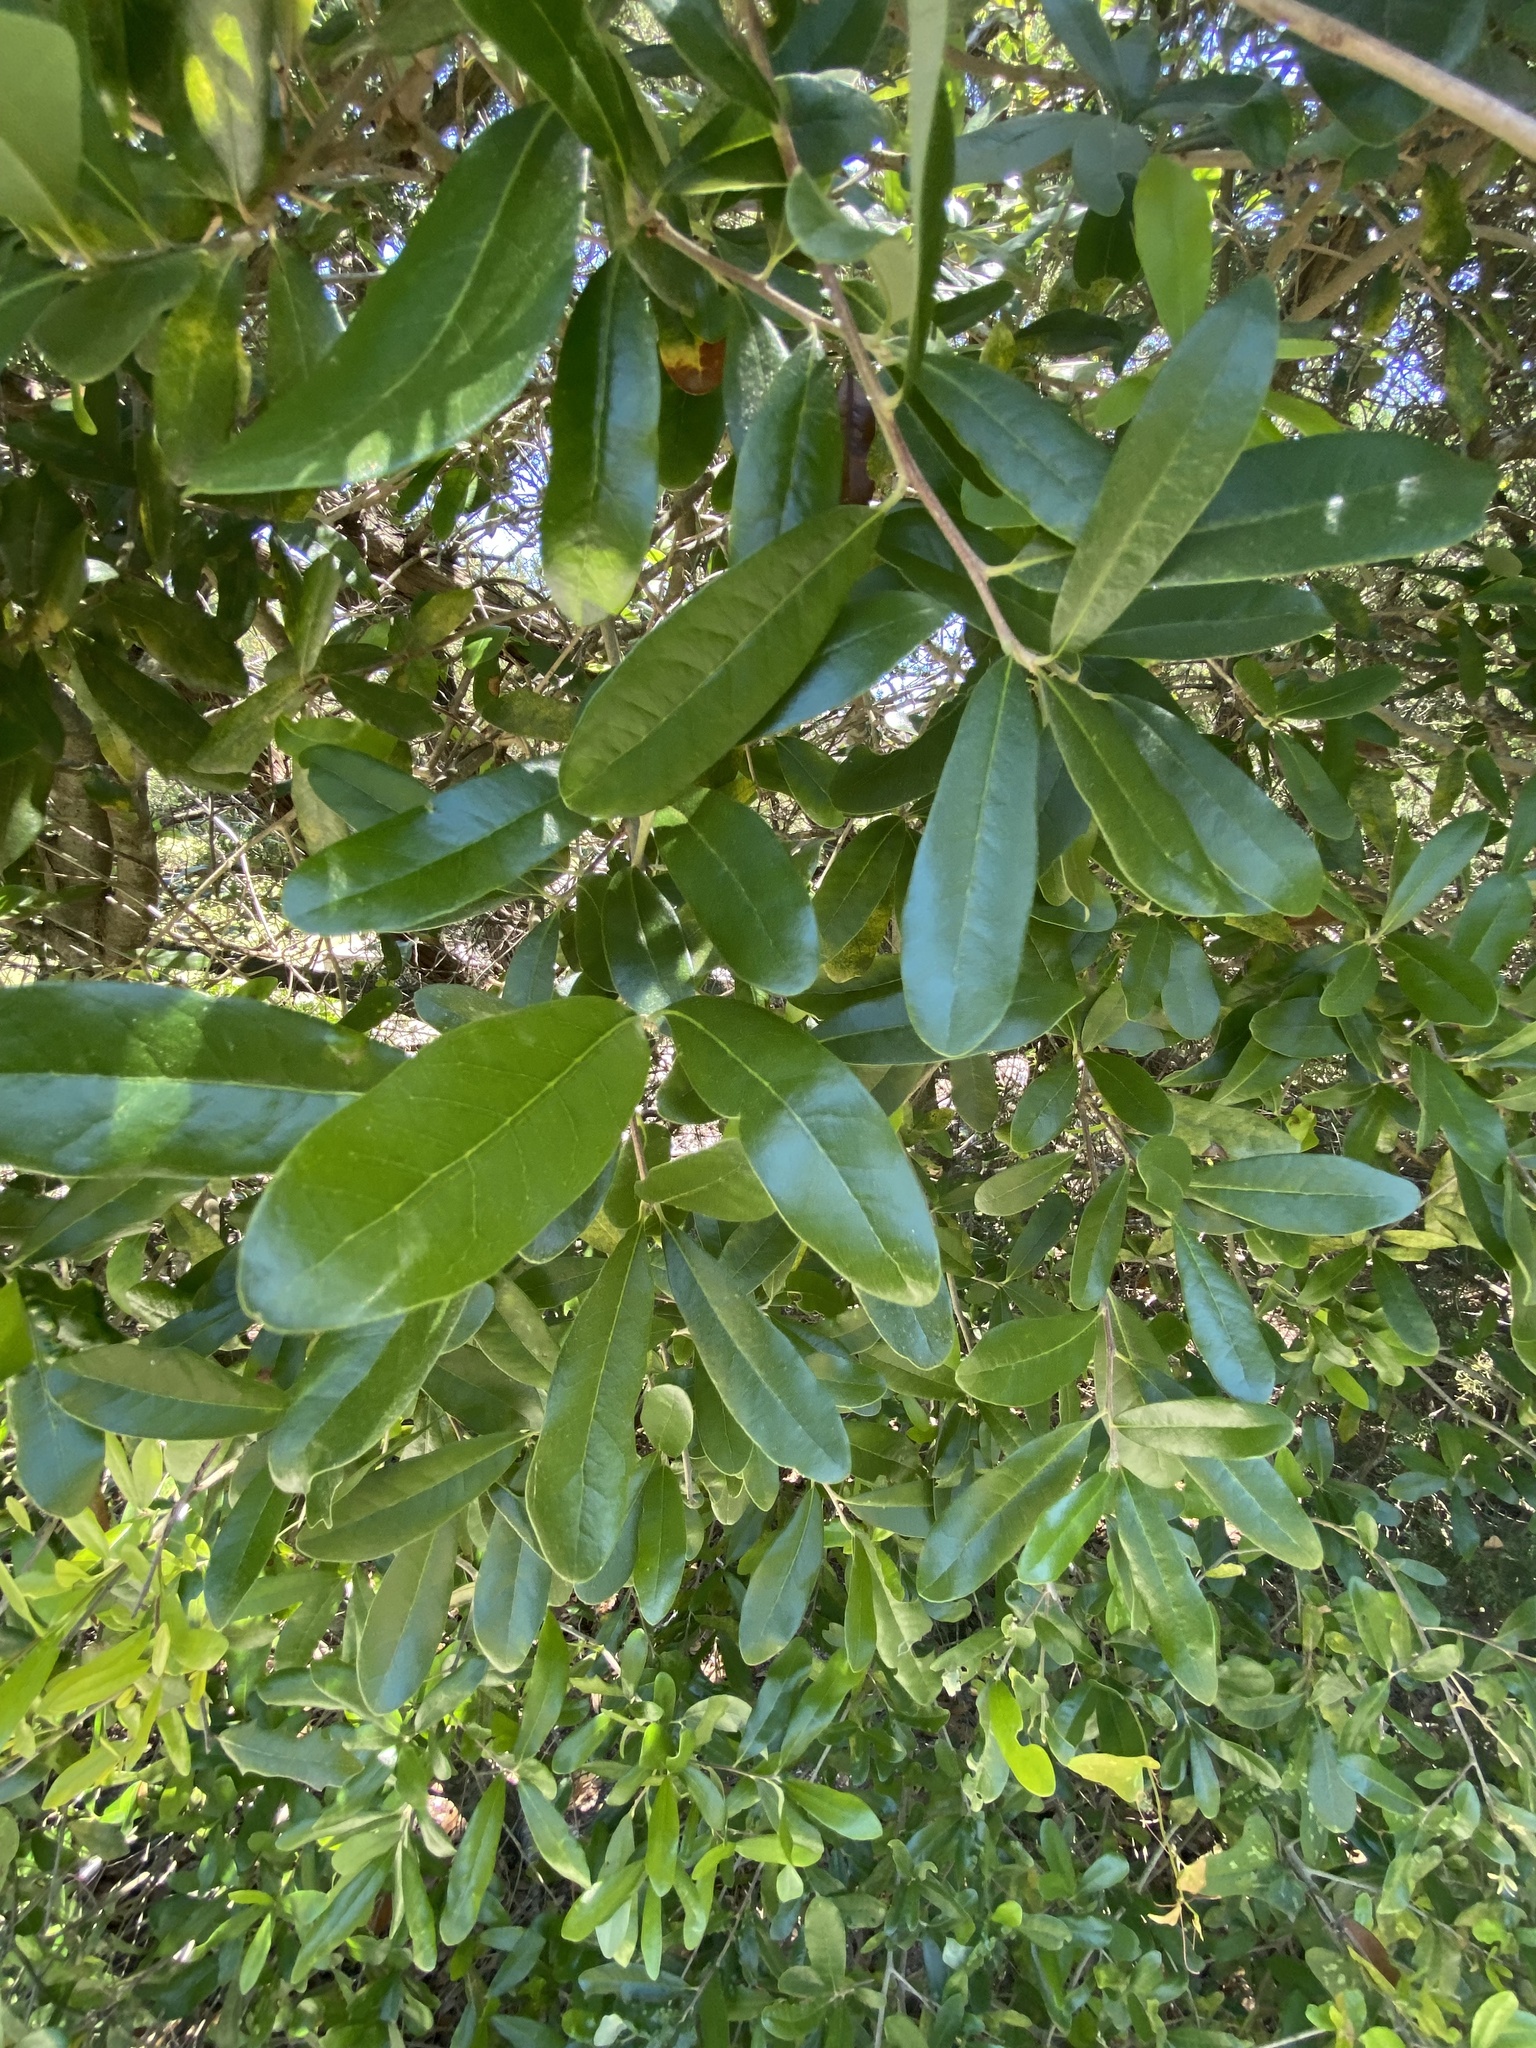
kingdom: Plantae
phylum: Tracheophyta
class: Magnoliopsida
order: Fagales
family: Fagaceae
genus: Quercus
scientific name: Quercus virginiana
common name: Southern live oak
